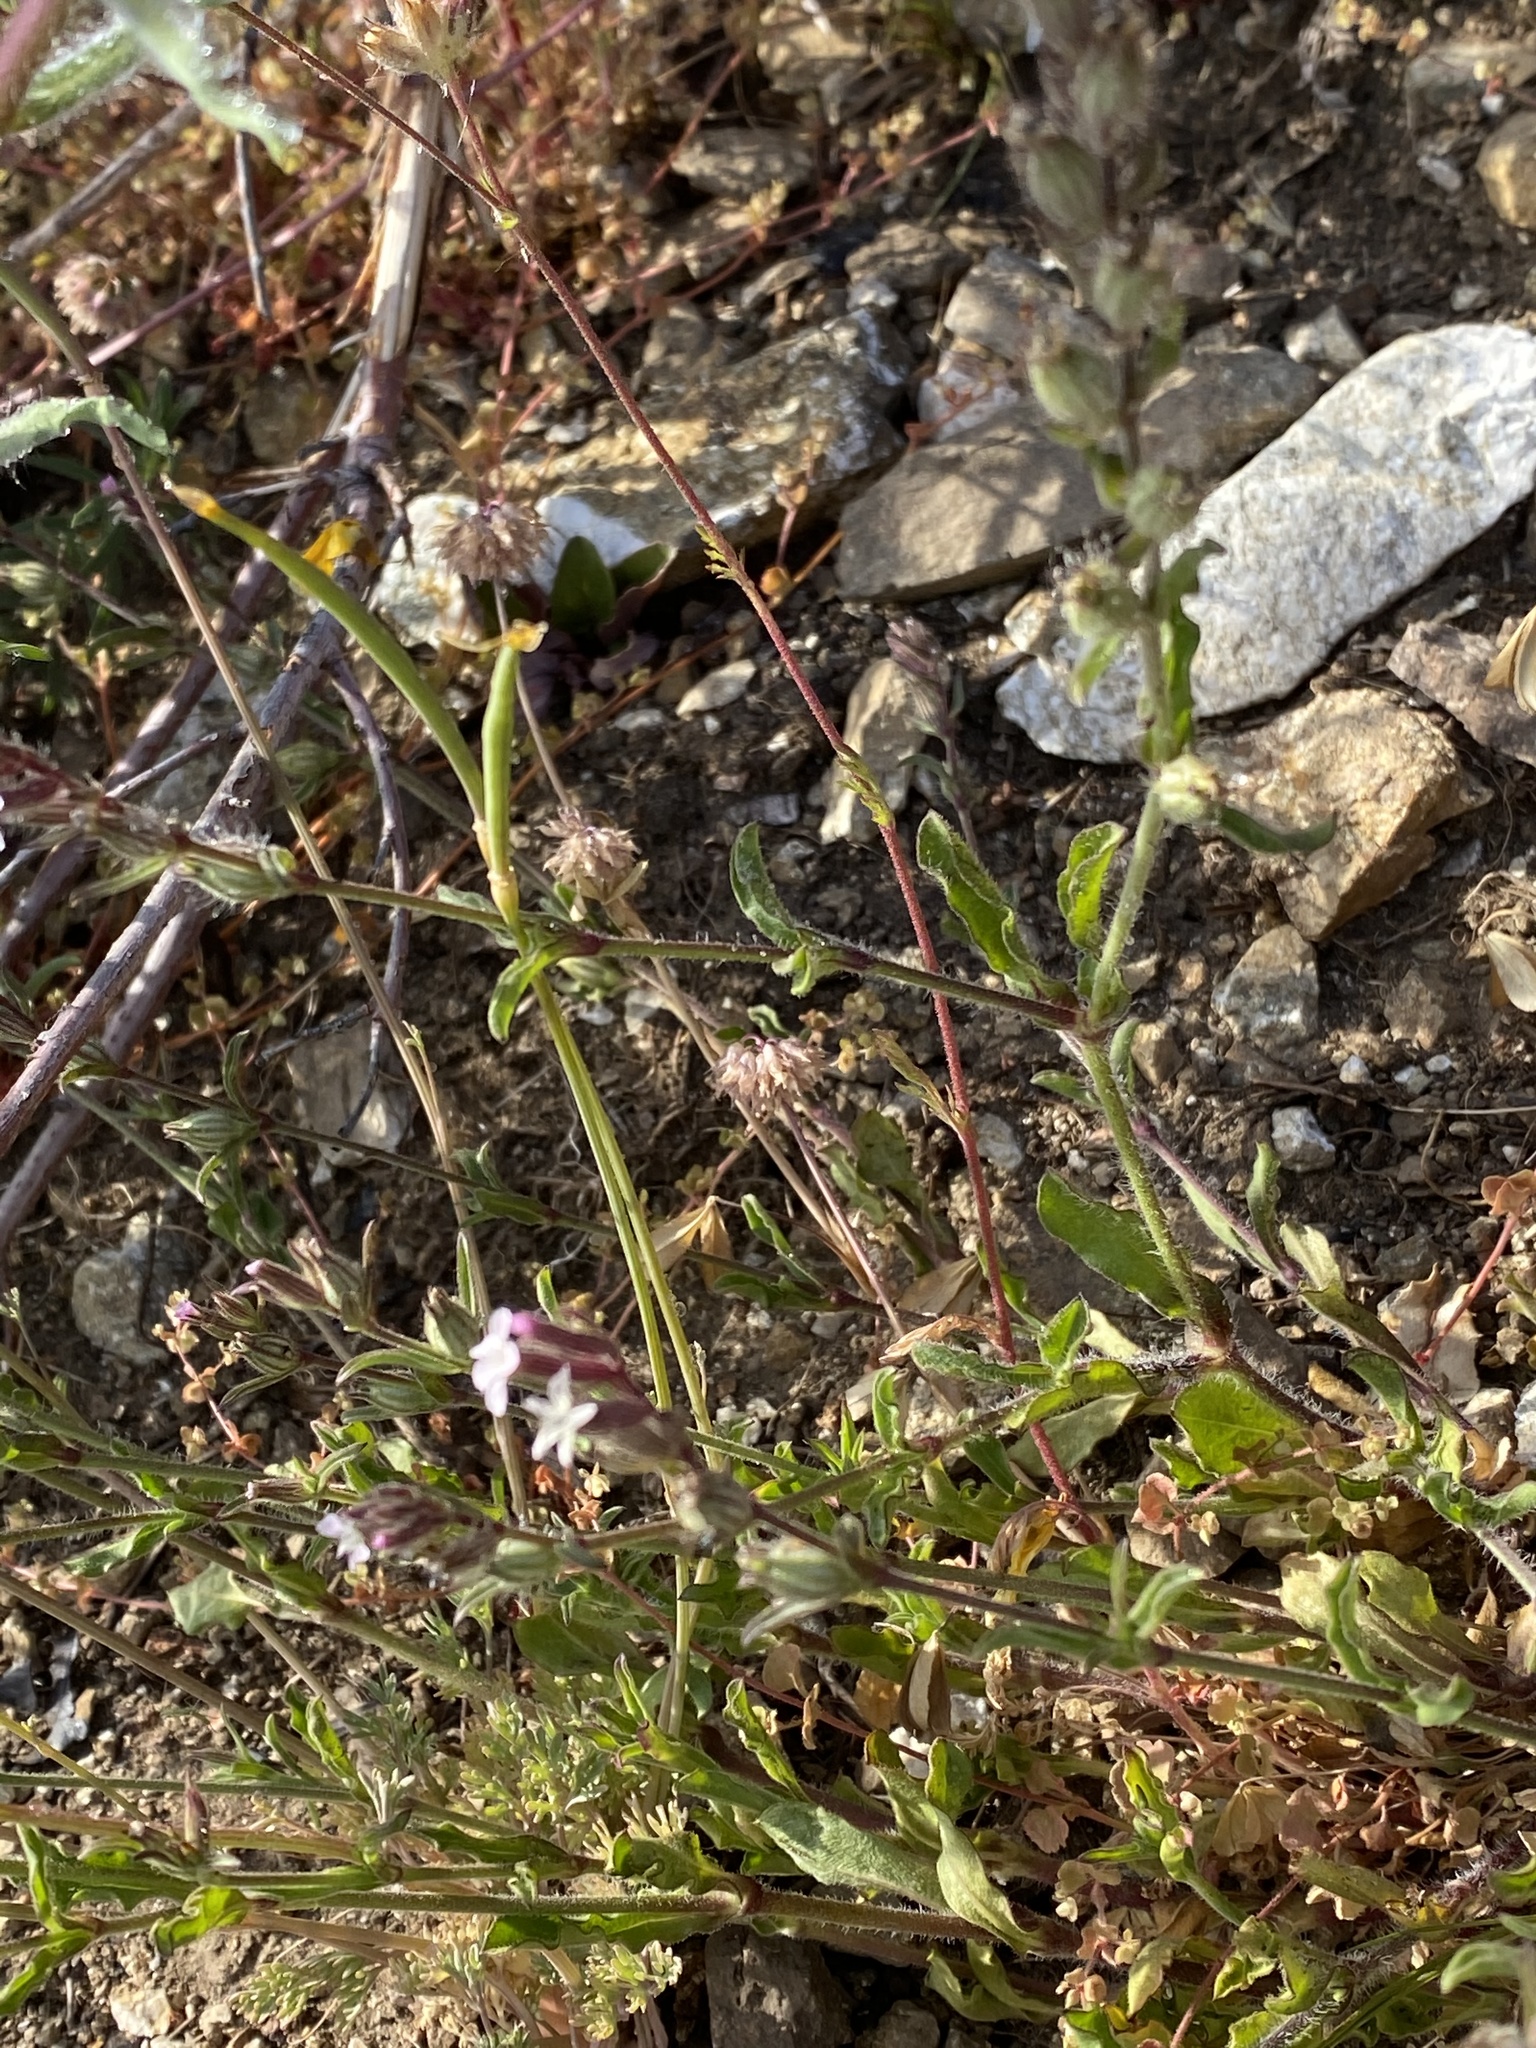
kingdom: Plantae
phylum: Tracheophyta
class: Magnoliopsida
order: Caryophyllales
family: Caryophyllaceae
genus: Silene
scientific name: Silene gallica
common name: Small-flowered catchfly
